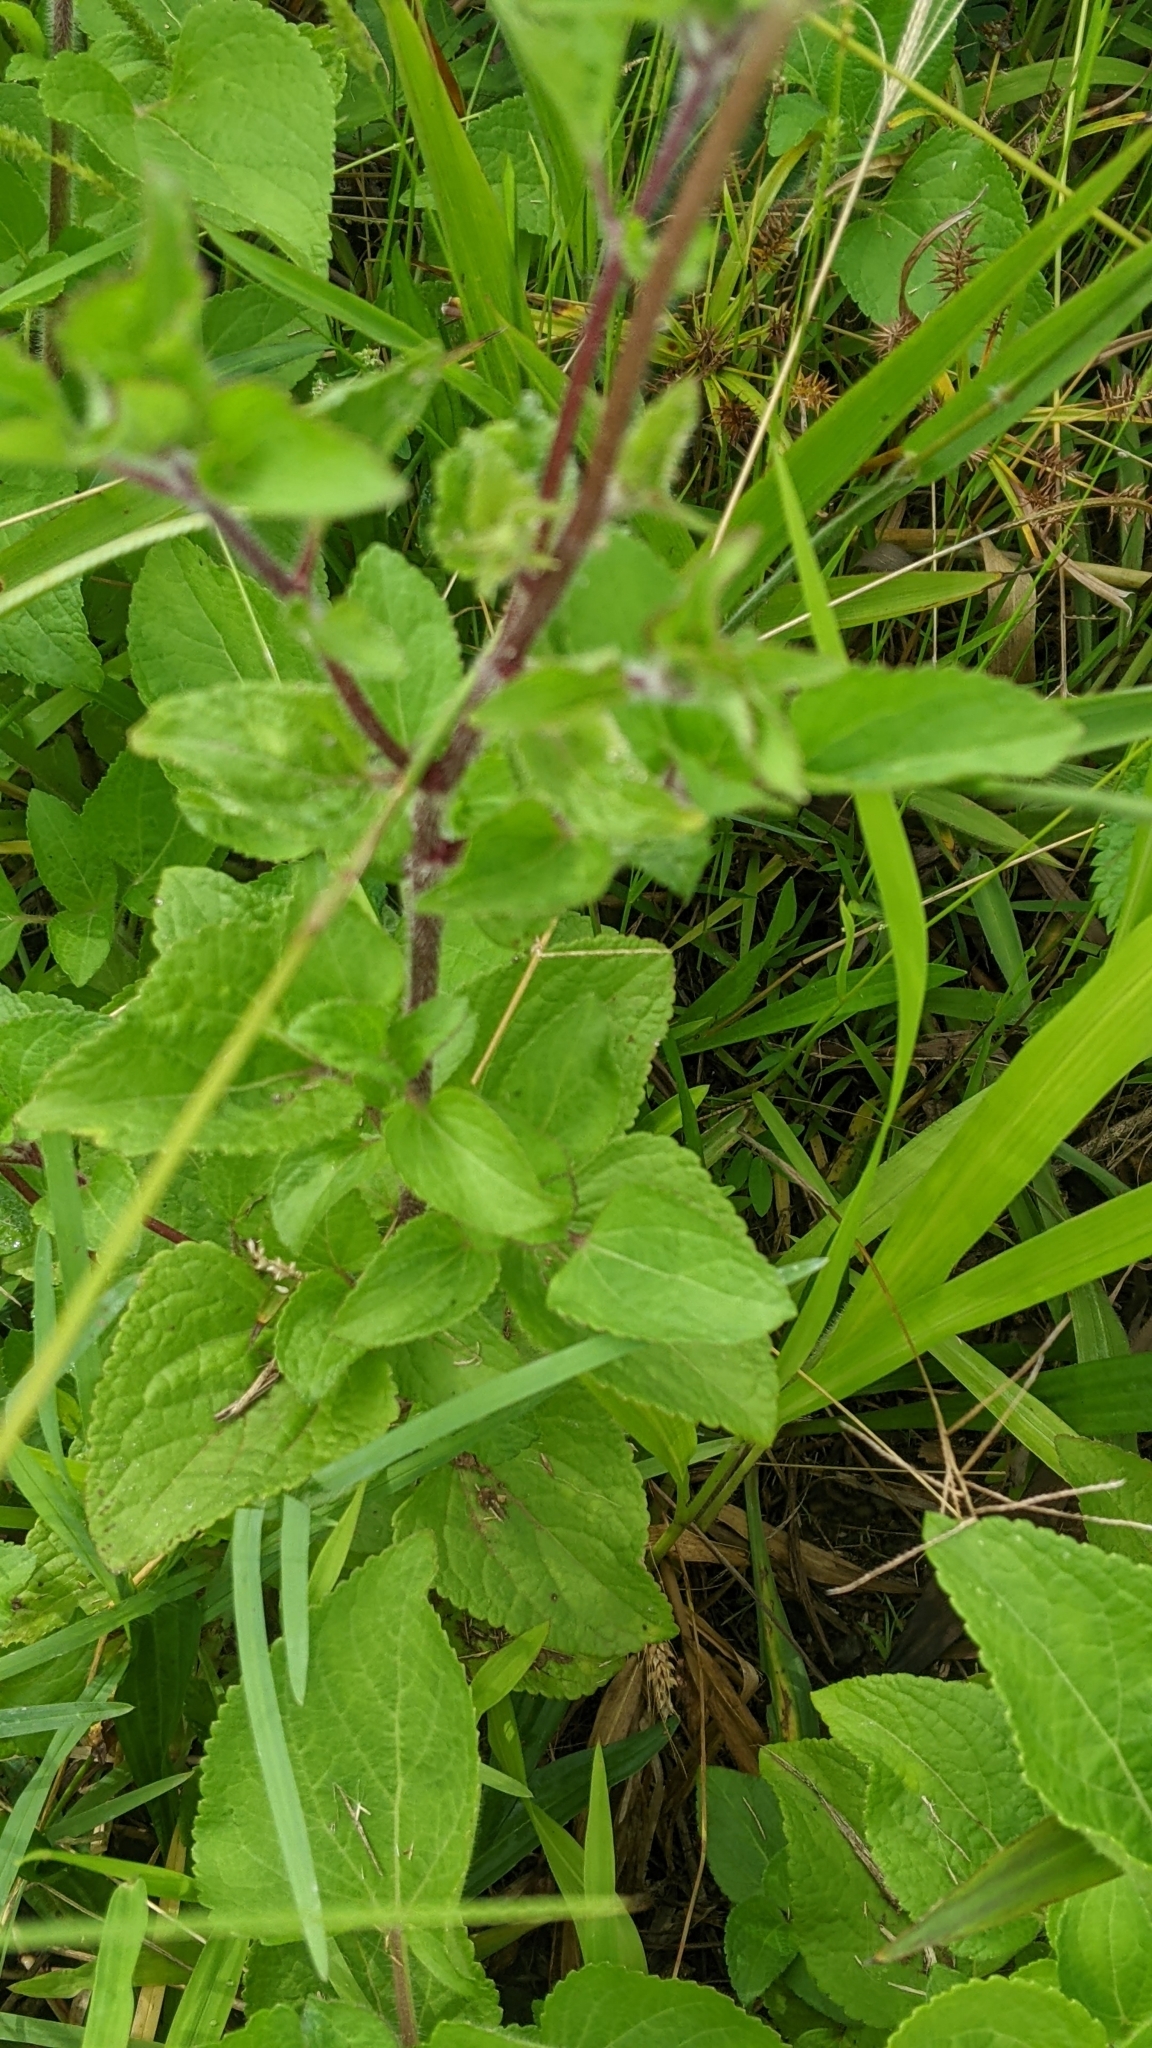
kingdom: Plantae
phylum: Tracheophyta
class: Magnoliopsida
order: Asterales
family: Asteraceae
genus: Ageratum
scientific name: Ageratum houstonianum
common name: Bluemink
